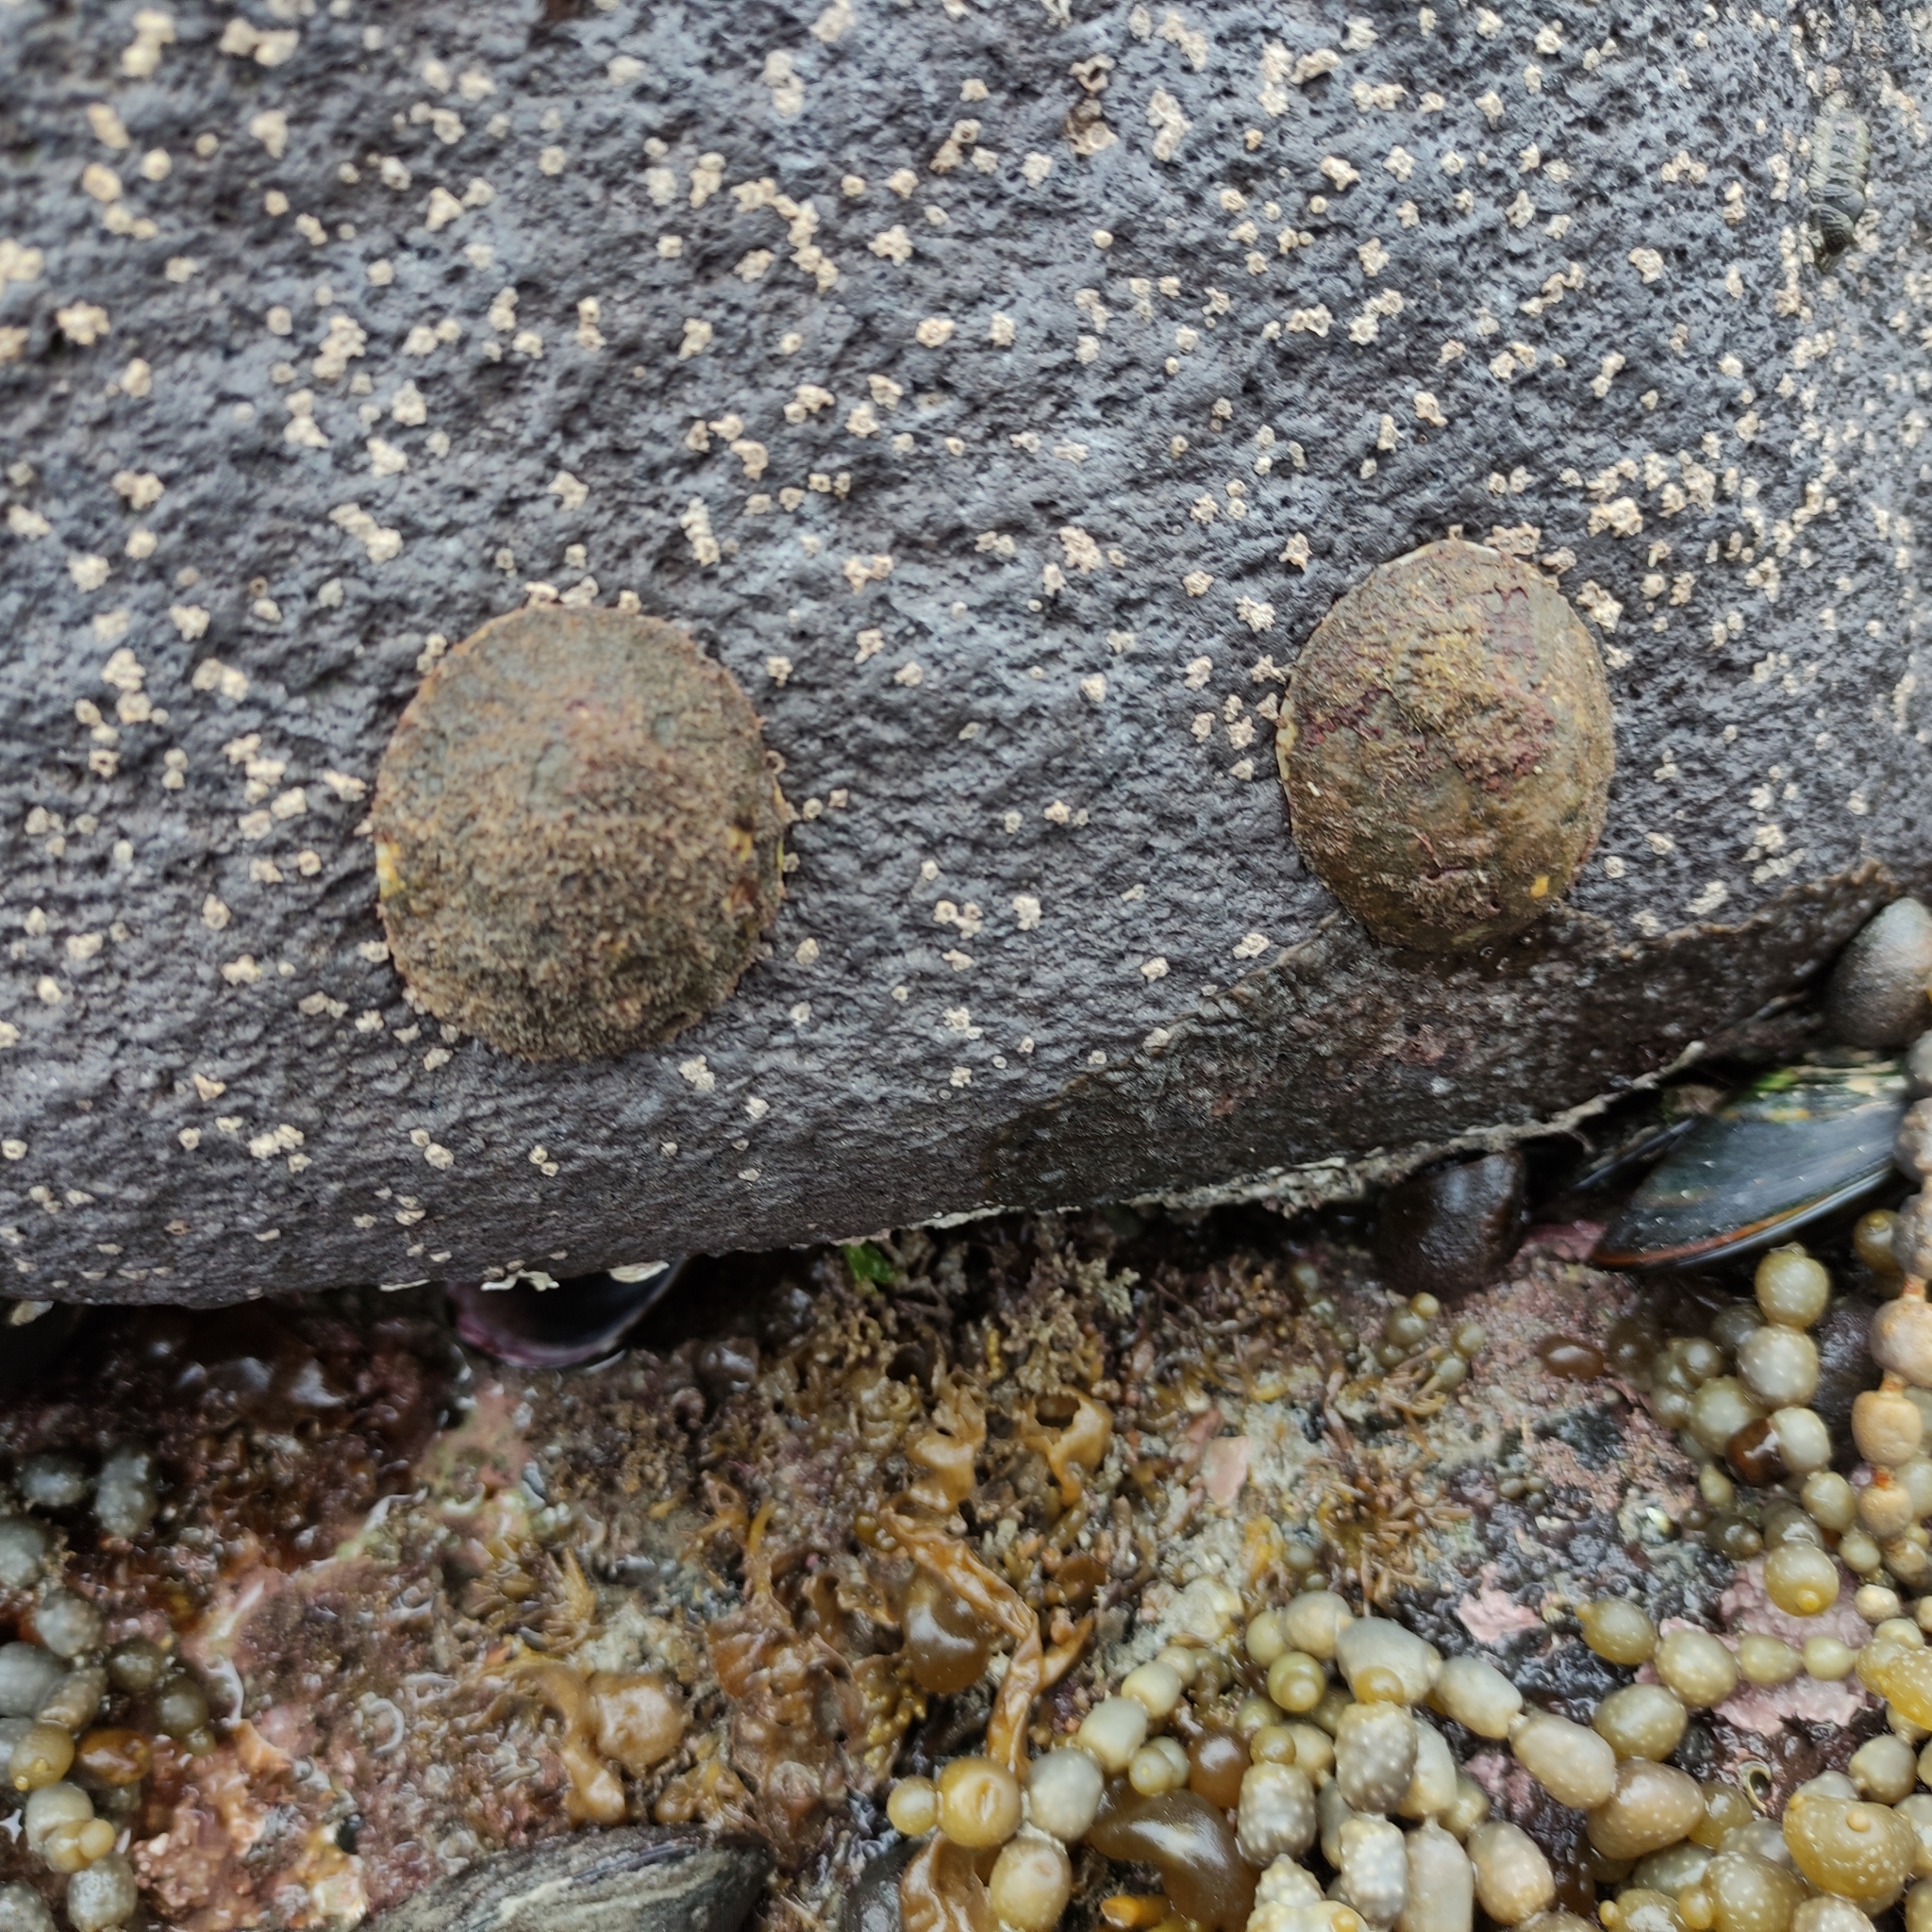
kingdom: Animalia
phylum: Mollusca
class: Gastropoda
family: Nacellidae
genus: Cellana
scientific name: Cellana radians
